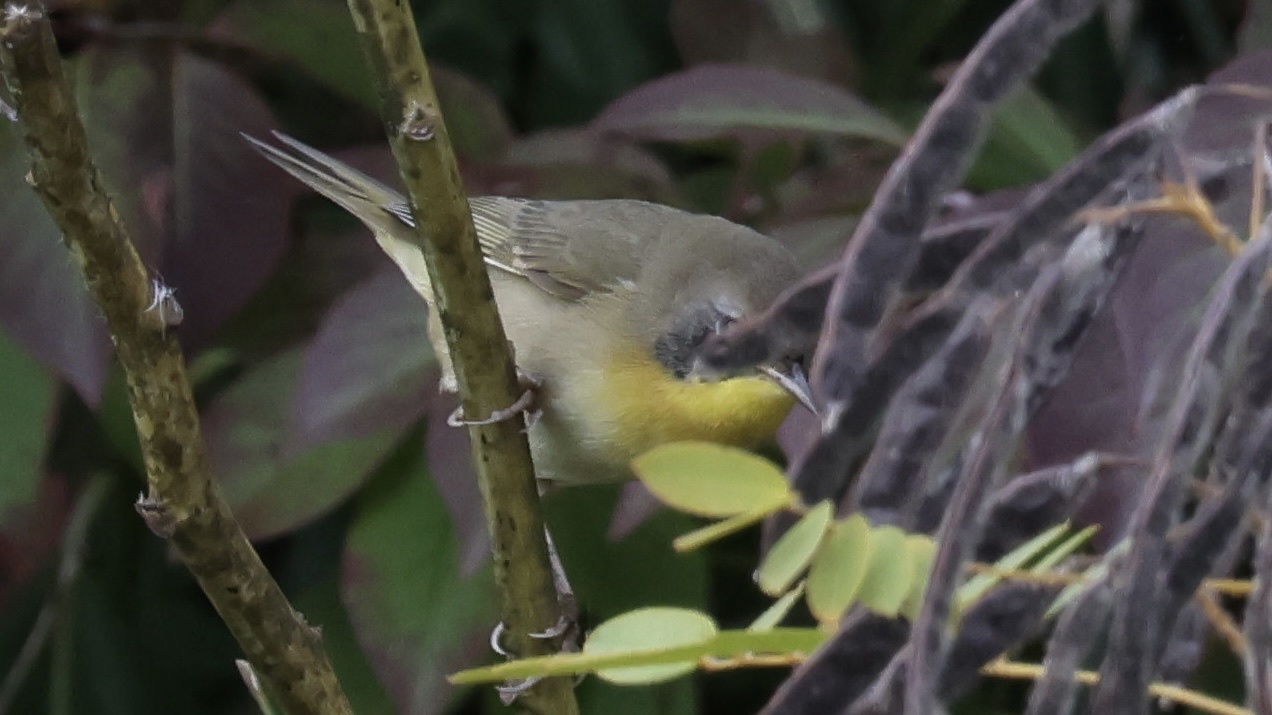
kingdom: Animalia
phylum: Chordata
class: Aves
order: Passeriformes
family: Parulidae
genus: Geothlypis
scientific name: Geothlypis trichas
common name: Common yellowthroat
